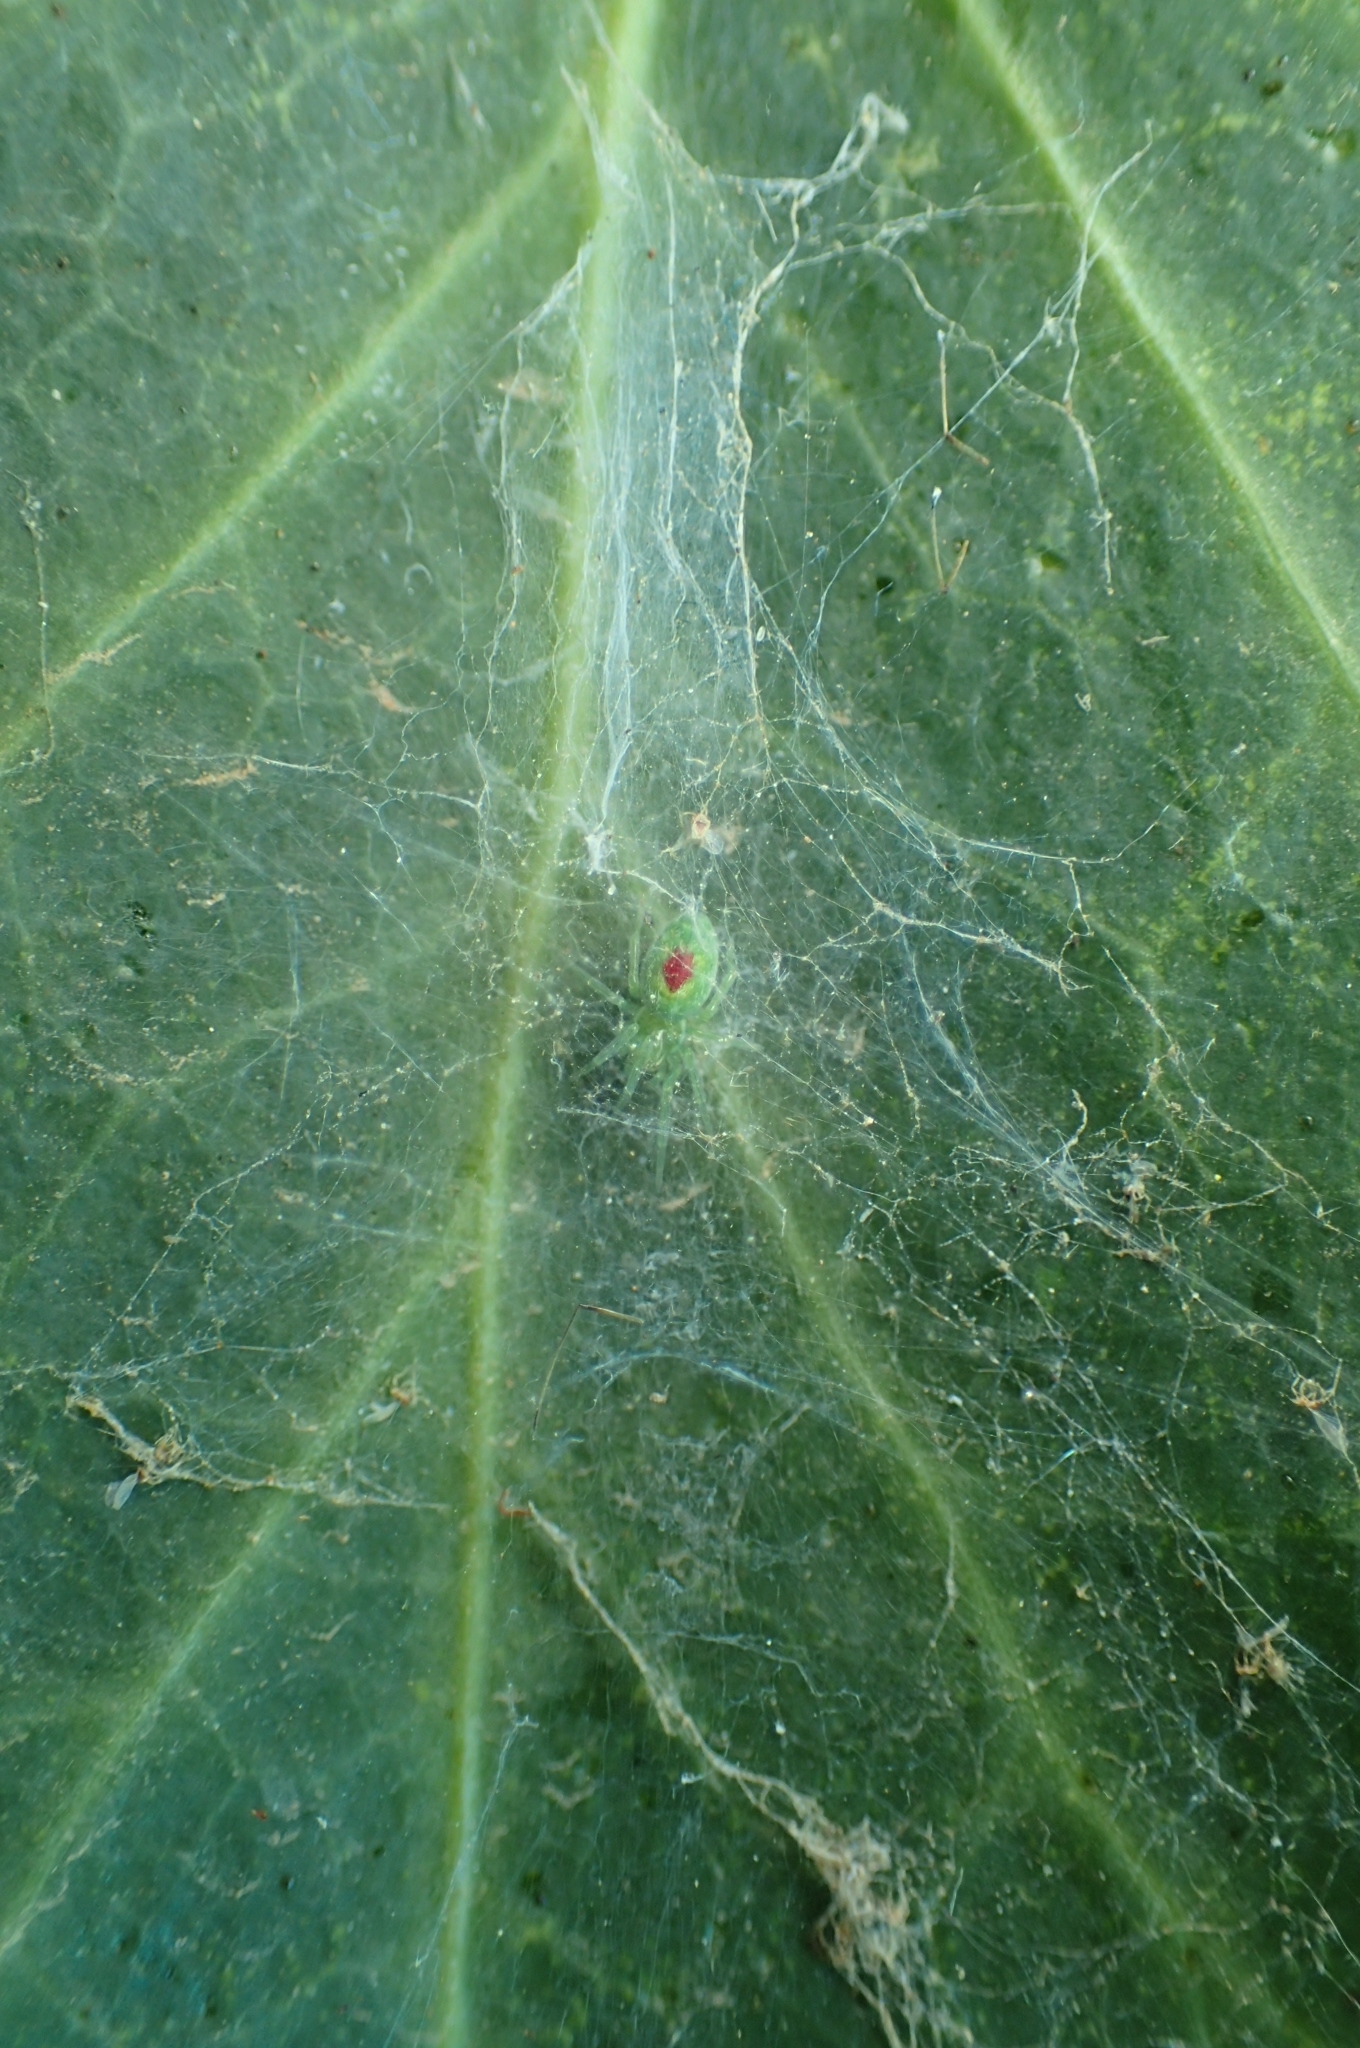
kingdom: Animalia
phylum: Arthropoda
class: Arachnida
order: Araneae
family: Dictynidae
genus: Nigma
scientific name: Nigma walckenaeri
